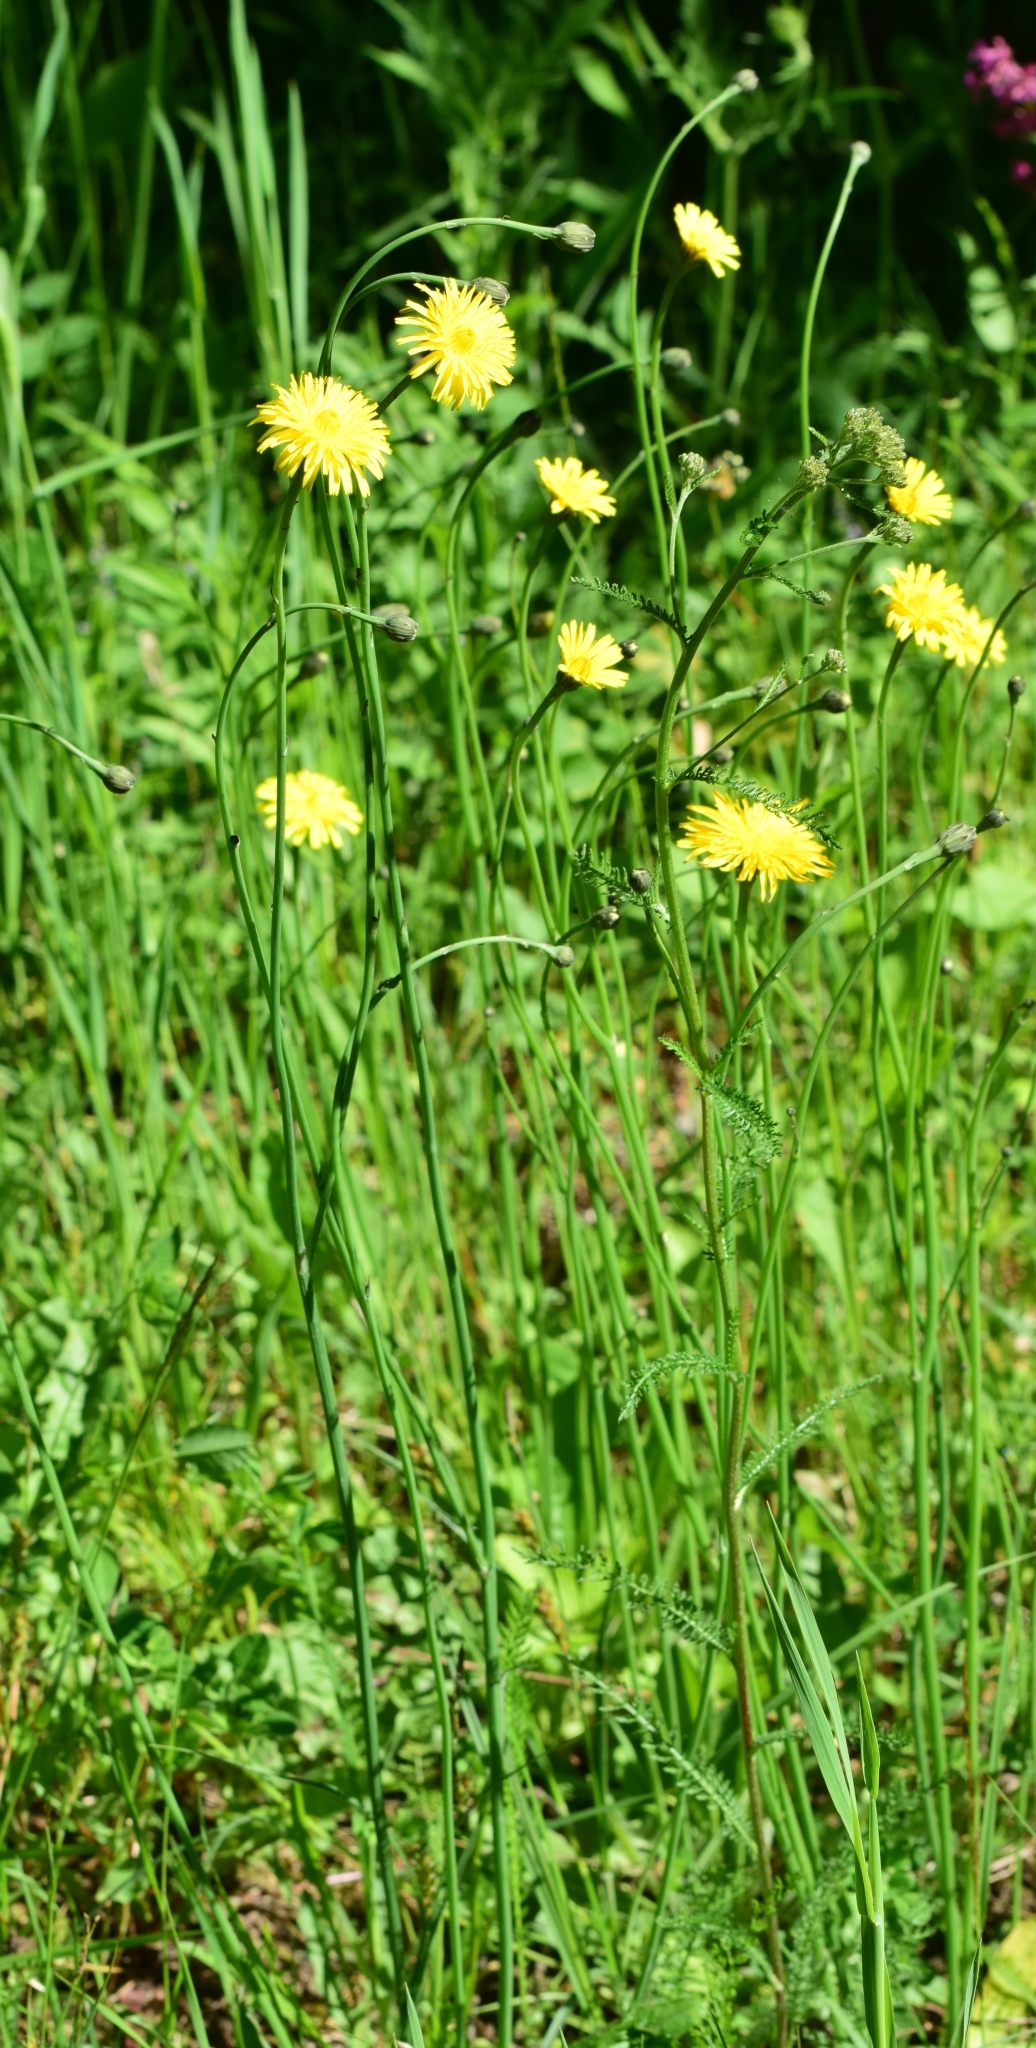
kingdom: Plantae
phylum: Tracheophyta
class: Magnoliopsida
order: Asterales
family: Asteraceae
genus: Hypochaeris
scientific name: Hypochaeris radicata
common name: Flatweed
